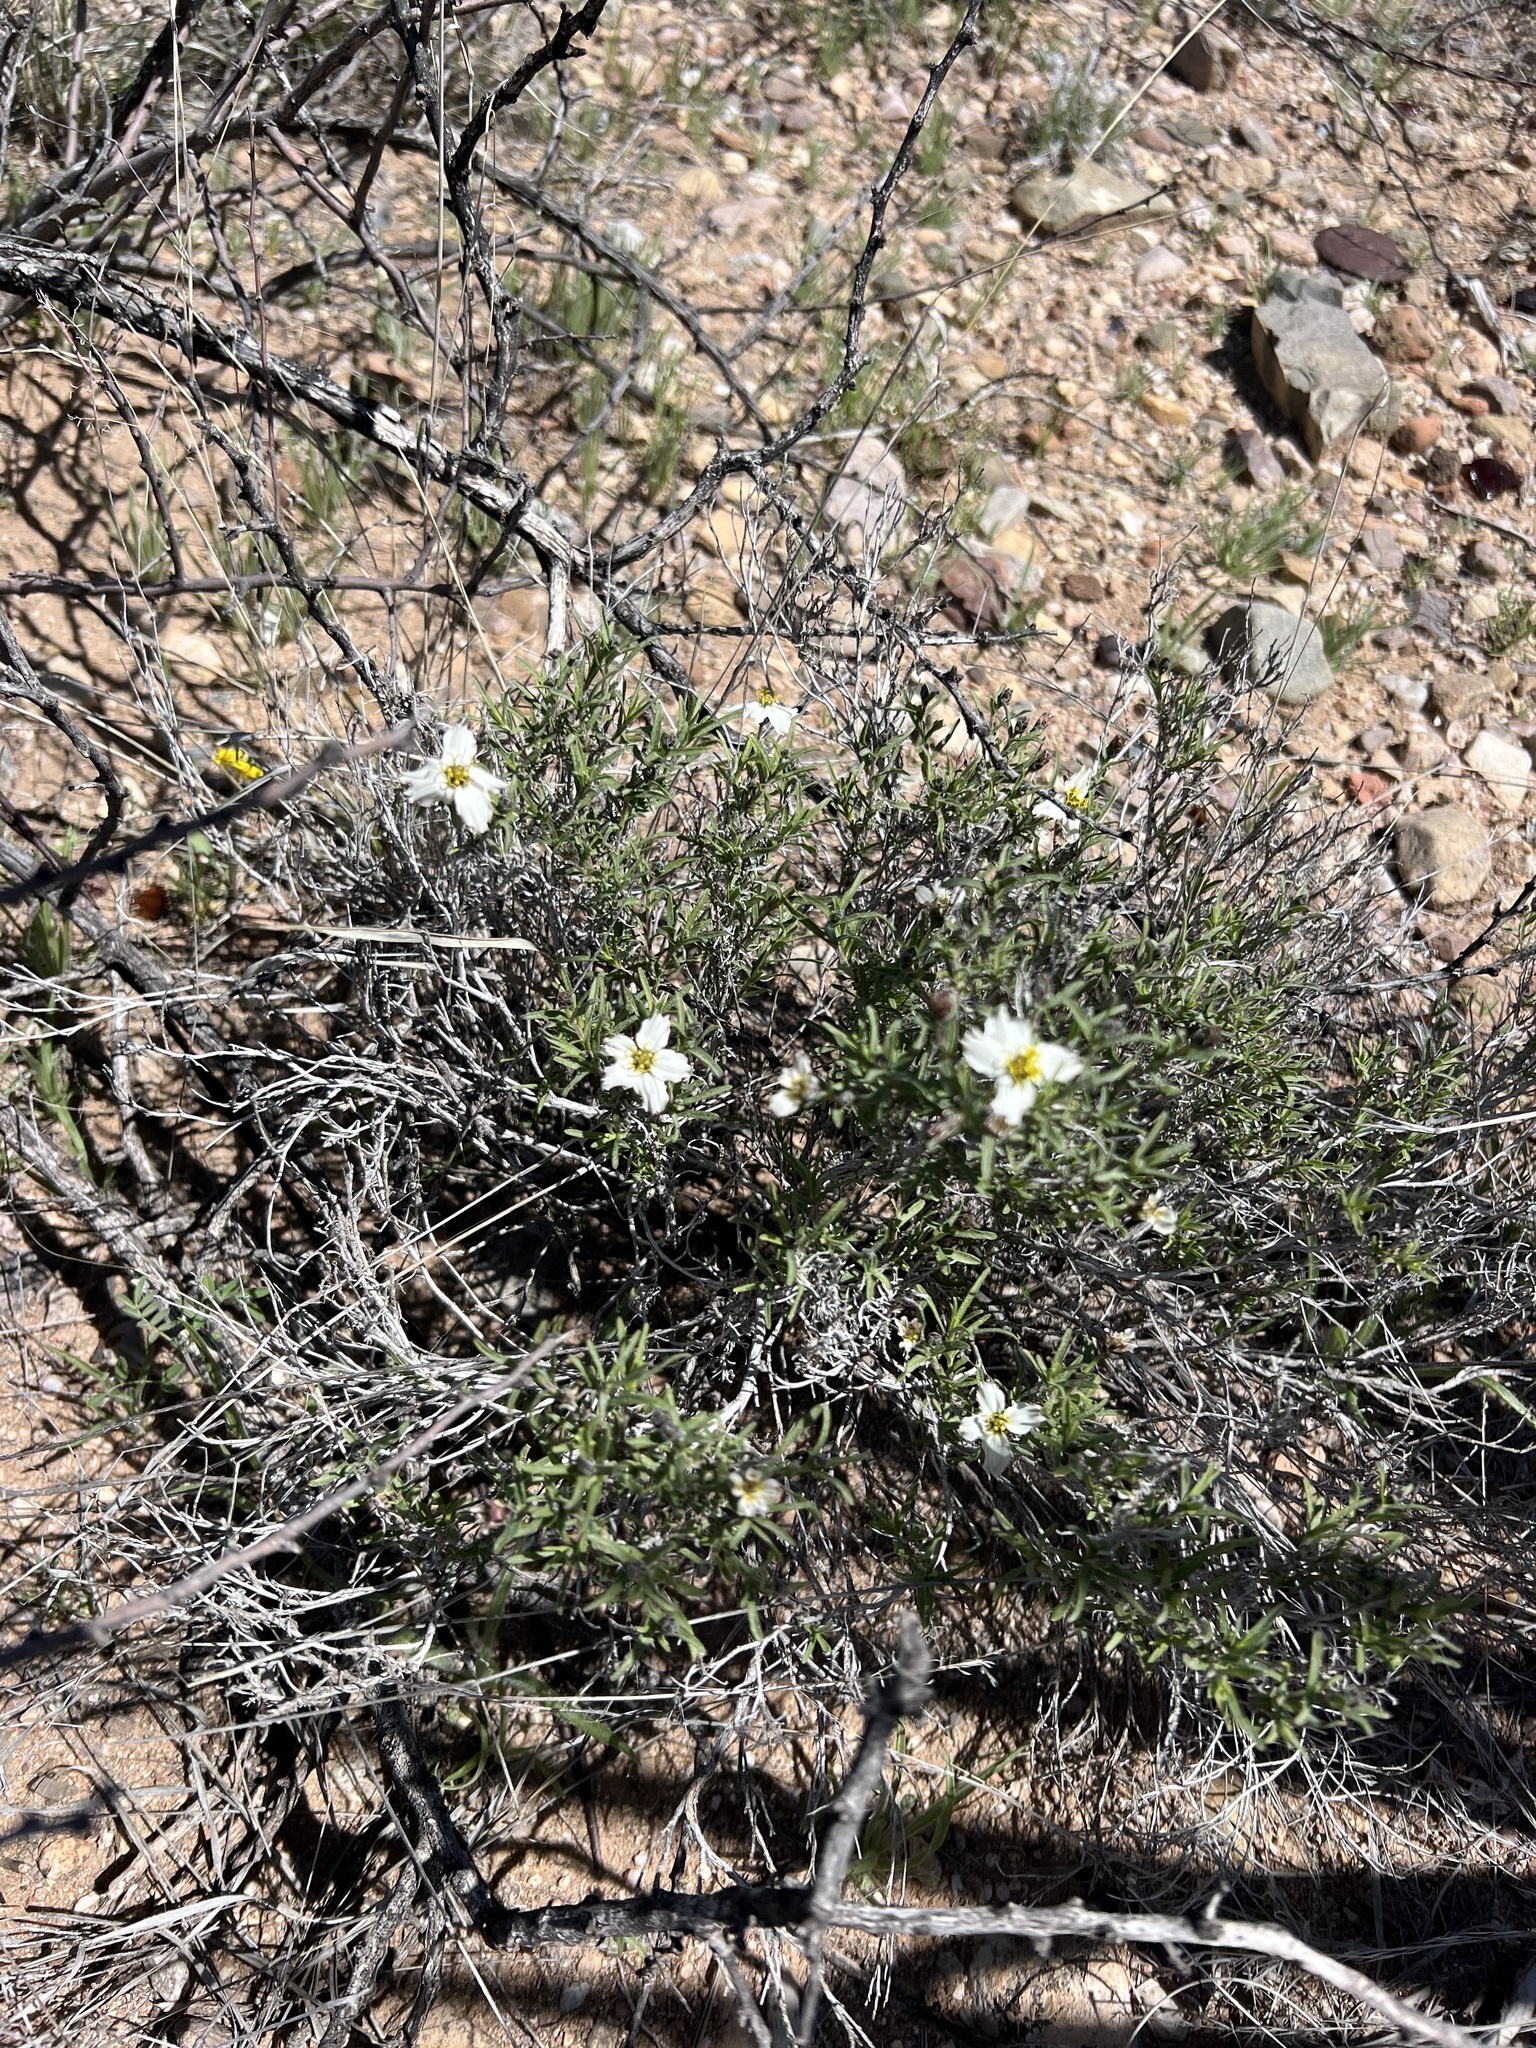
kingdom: Plantae
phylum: Tracheophyta
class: Magnoliopsida
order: Asterales
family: Asteraceae
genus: Zinnia
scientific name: Zinnia acerosa
